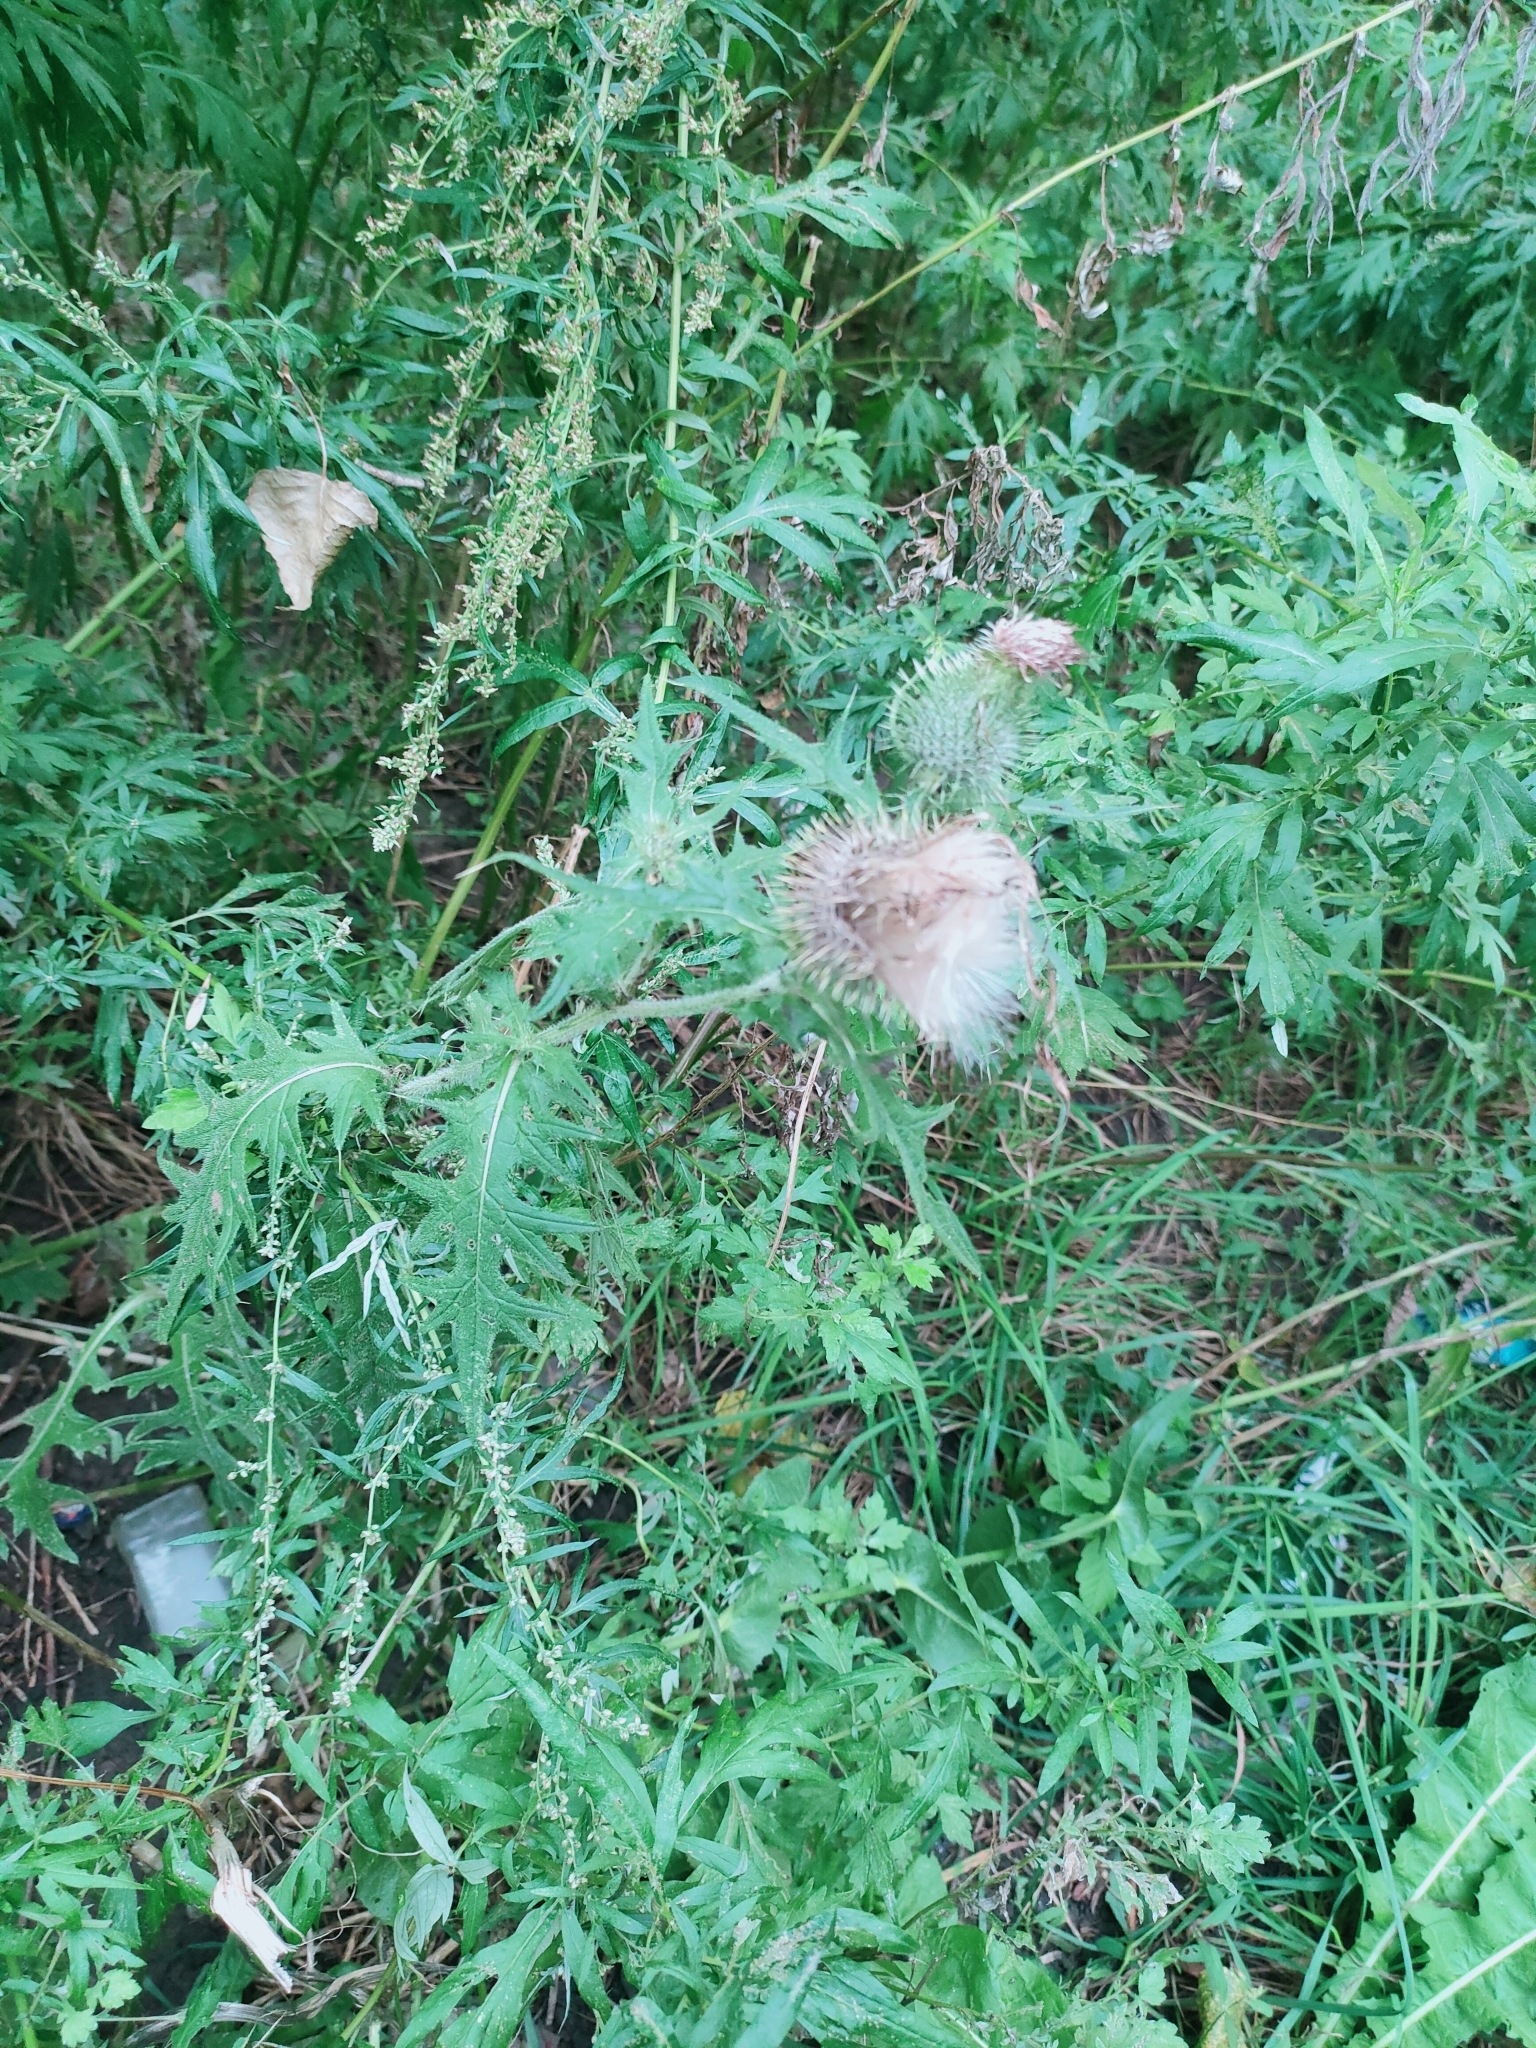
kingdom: Plantae
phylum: Tracheophyta
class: Magnoliopsida
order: Asterales
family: Asteraceae
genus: Cirsium
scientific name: Cirsium vulgare
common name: Bull thistle
